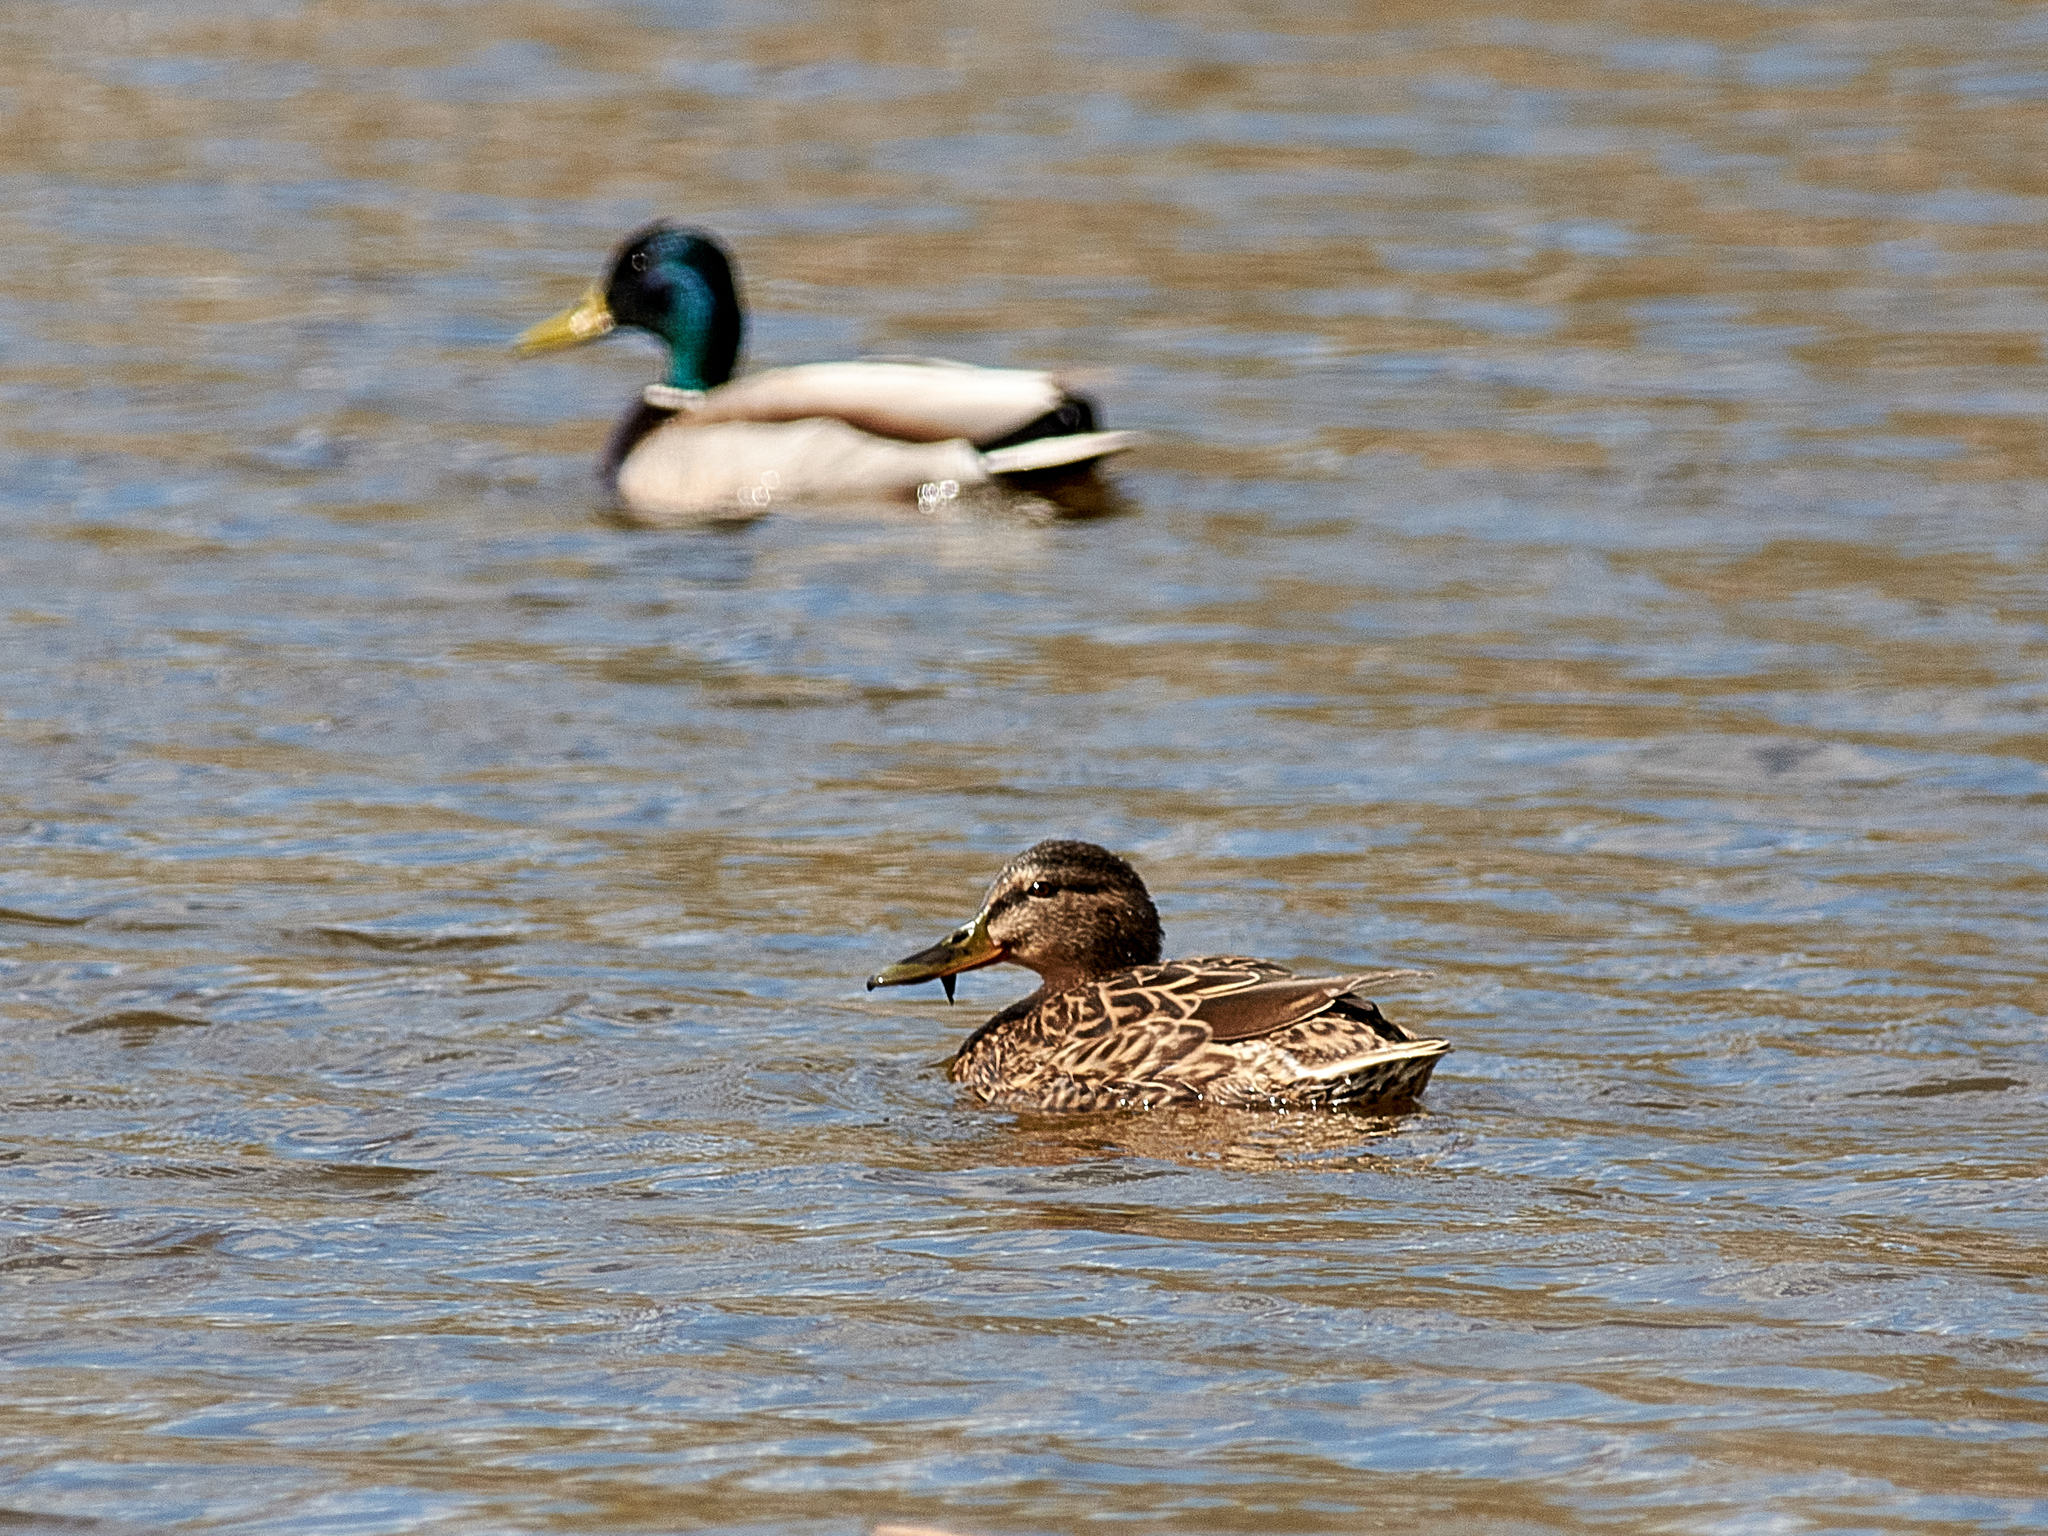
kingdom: Animalia
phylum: Chordata
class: Aves
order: Anseriformes
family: Anatidae
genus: Anas
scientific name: Anas platyrhynchos
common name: Mallard
